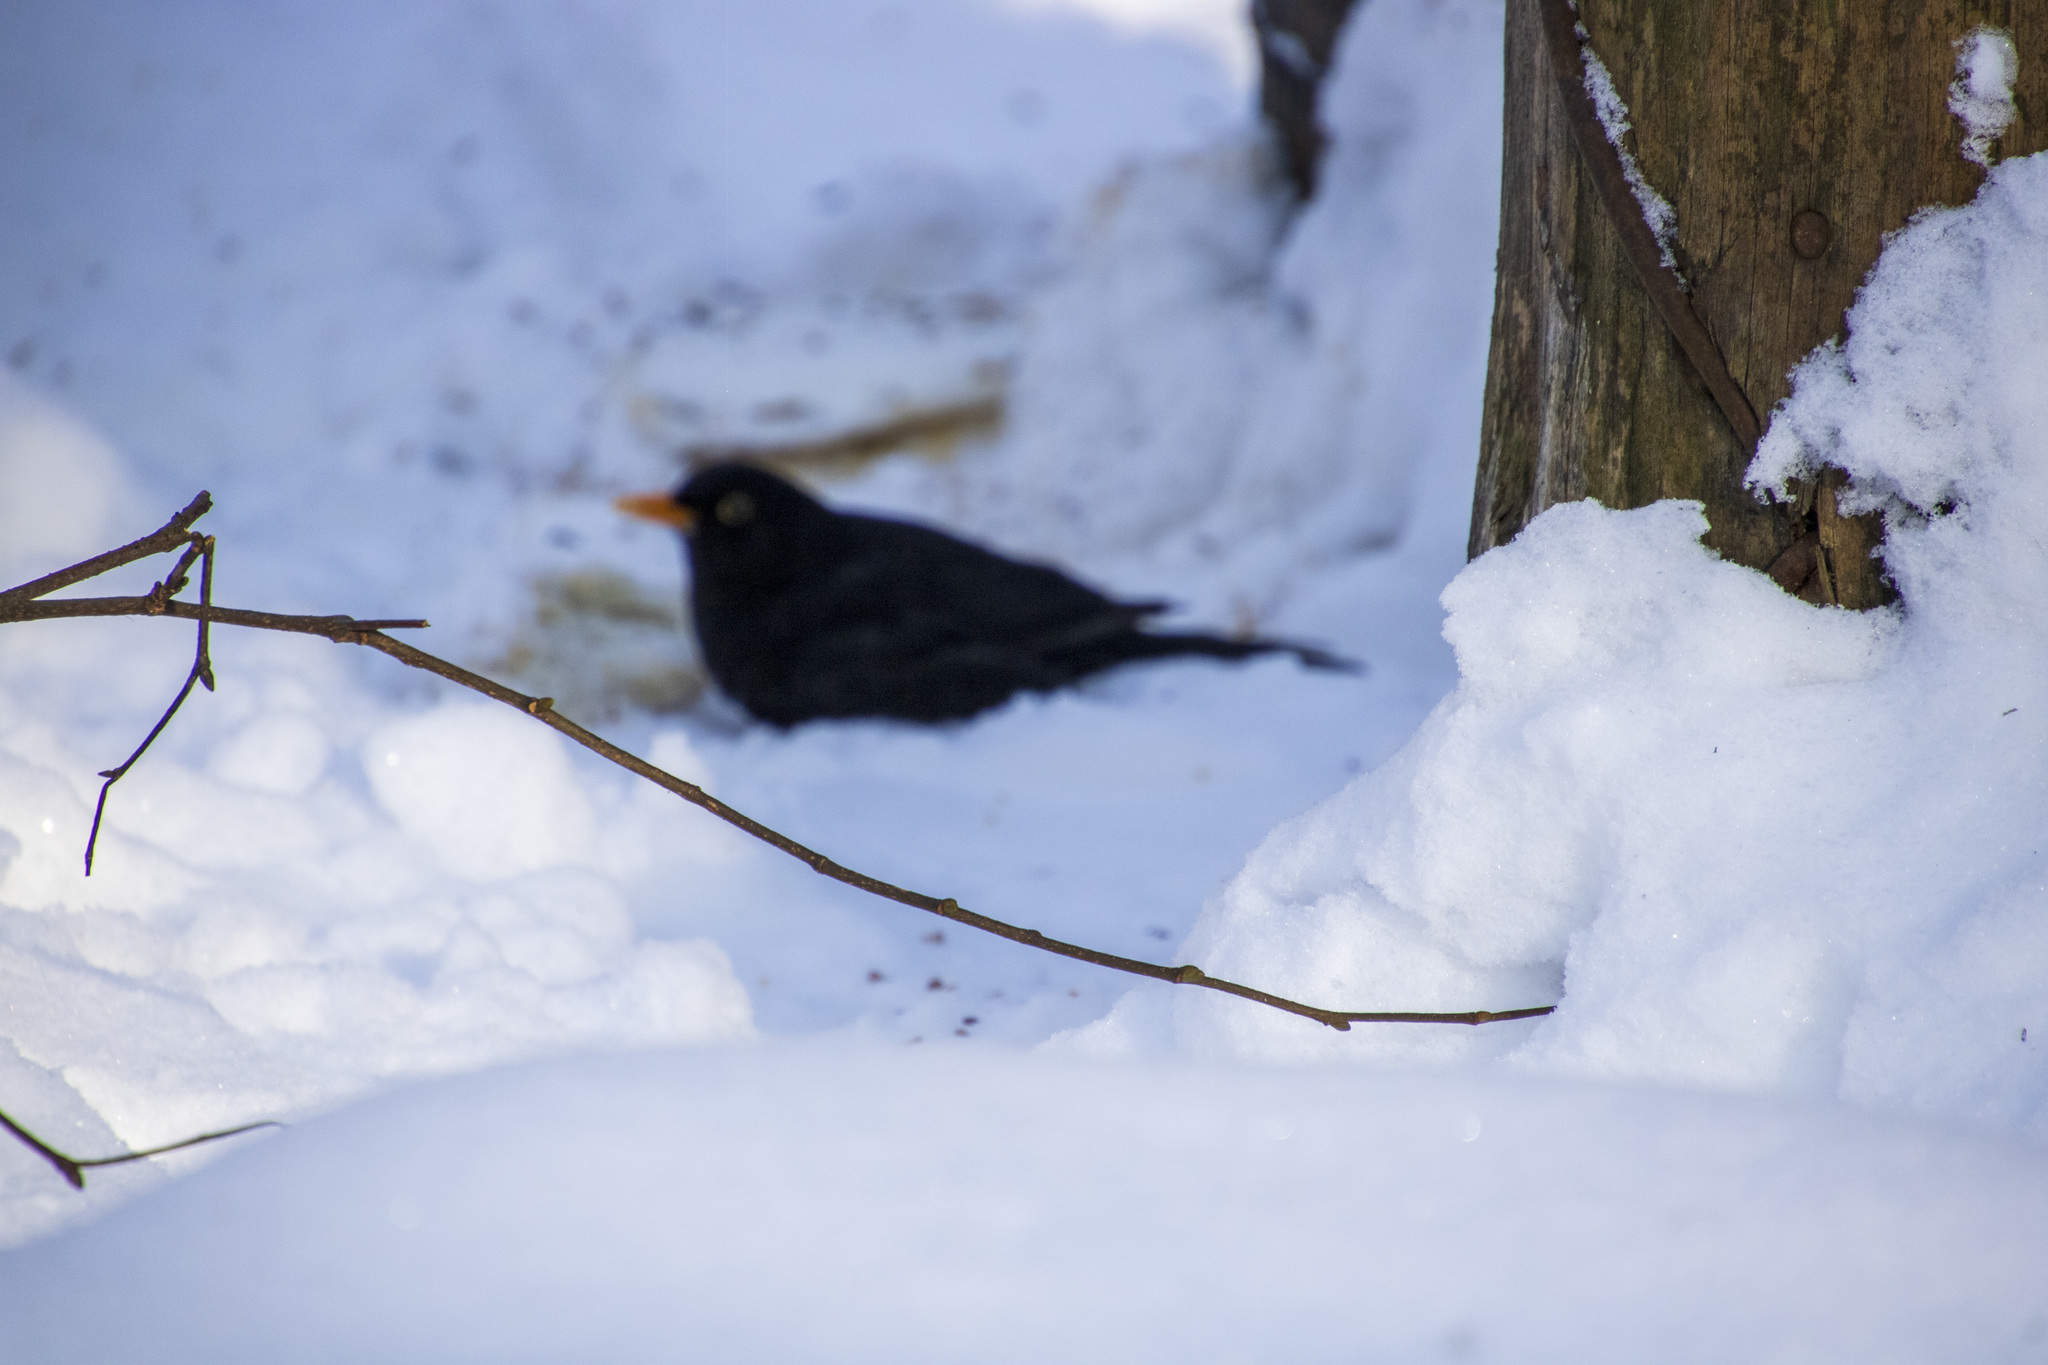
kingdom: Animalia
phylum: Chordata
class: Aves
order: Passeriformes
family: Turdidae
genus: Turdus
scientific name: Turdus merula
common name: Common blackbird
